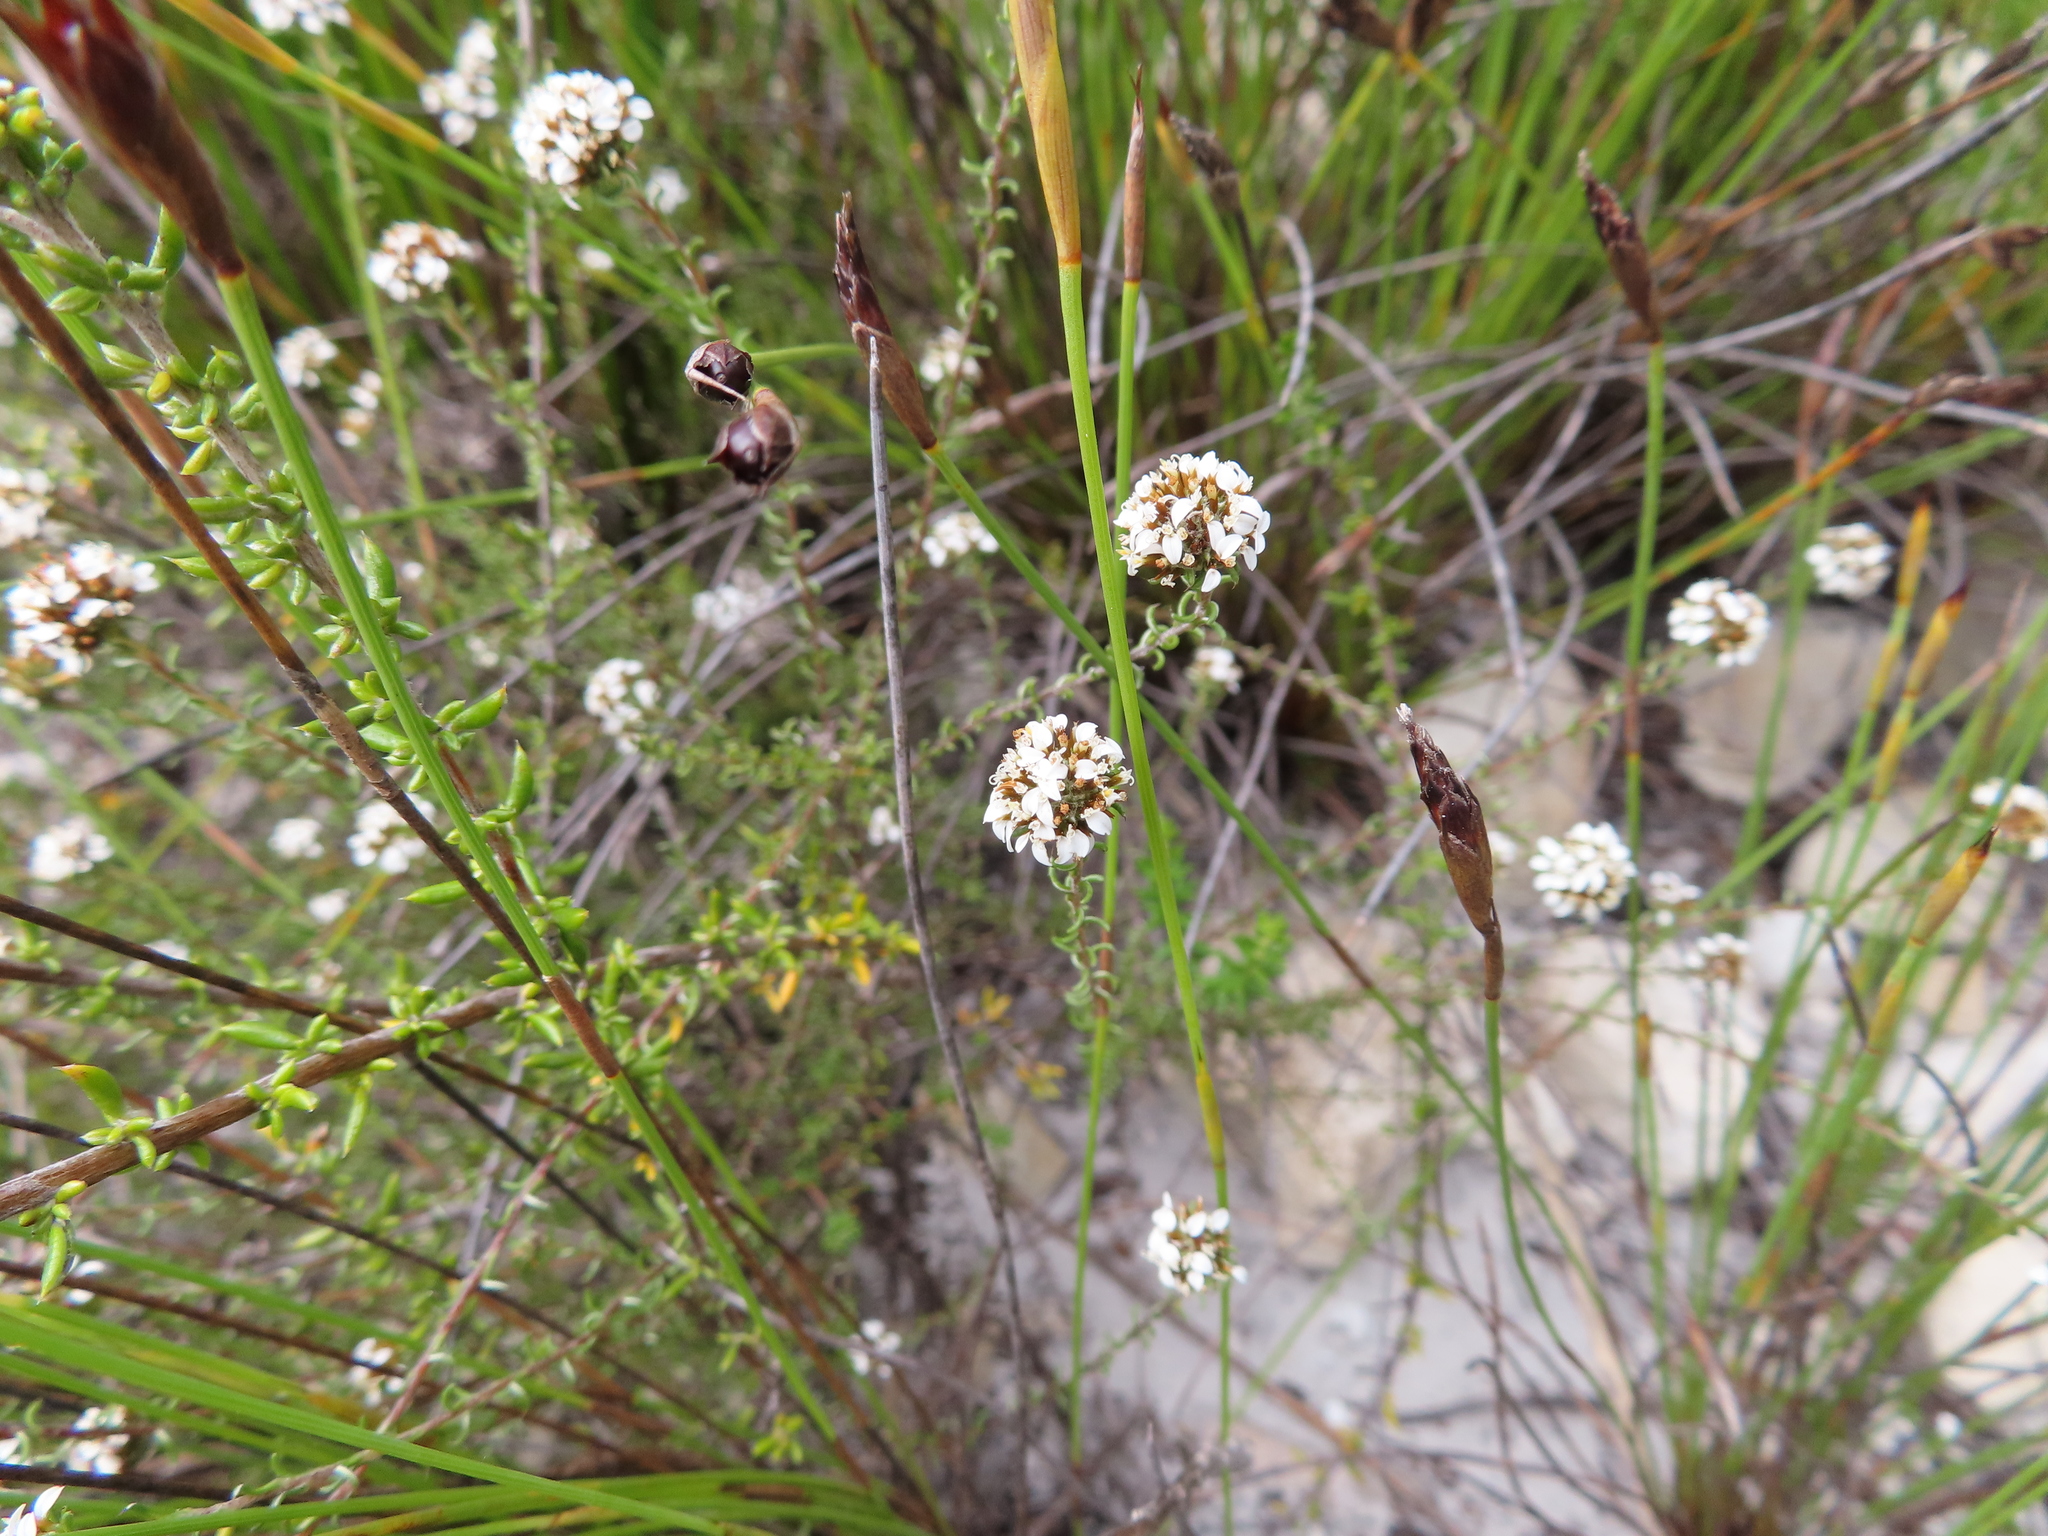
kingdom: Plantae
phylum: Tracheophyta
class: Magnoliopsida
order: Asterales
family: Asteraceae
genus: Disparago
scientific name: Disparago anomala
